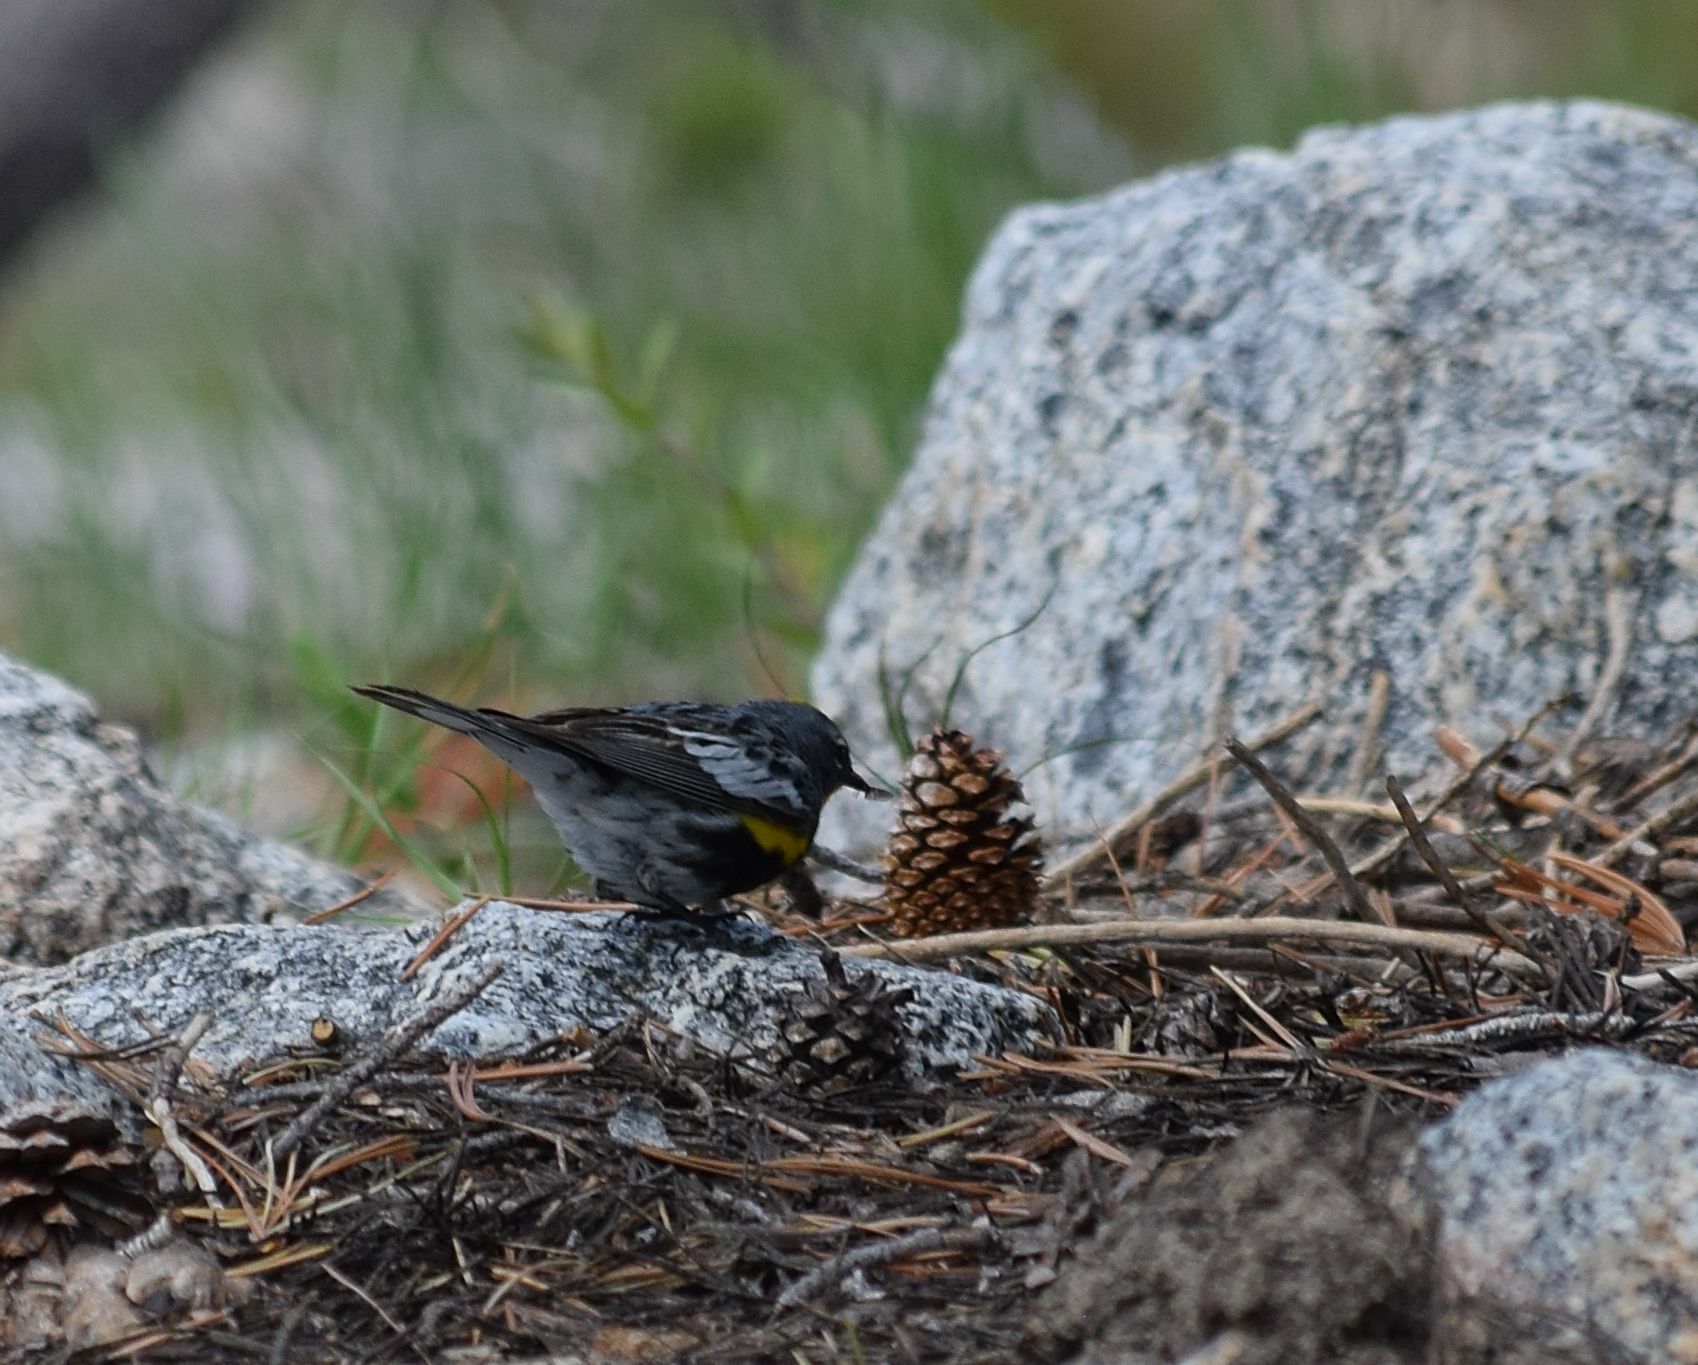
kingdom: Animalia
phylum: Chordata
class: Aves
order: Passeriformes
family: Parulidae
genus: Setophaga
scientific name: Setophaga coronata
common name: Myrtle warbler
